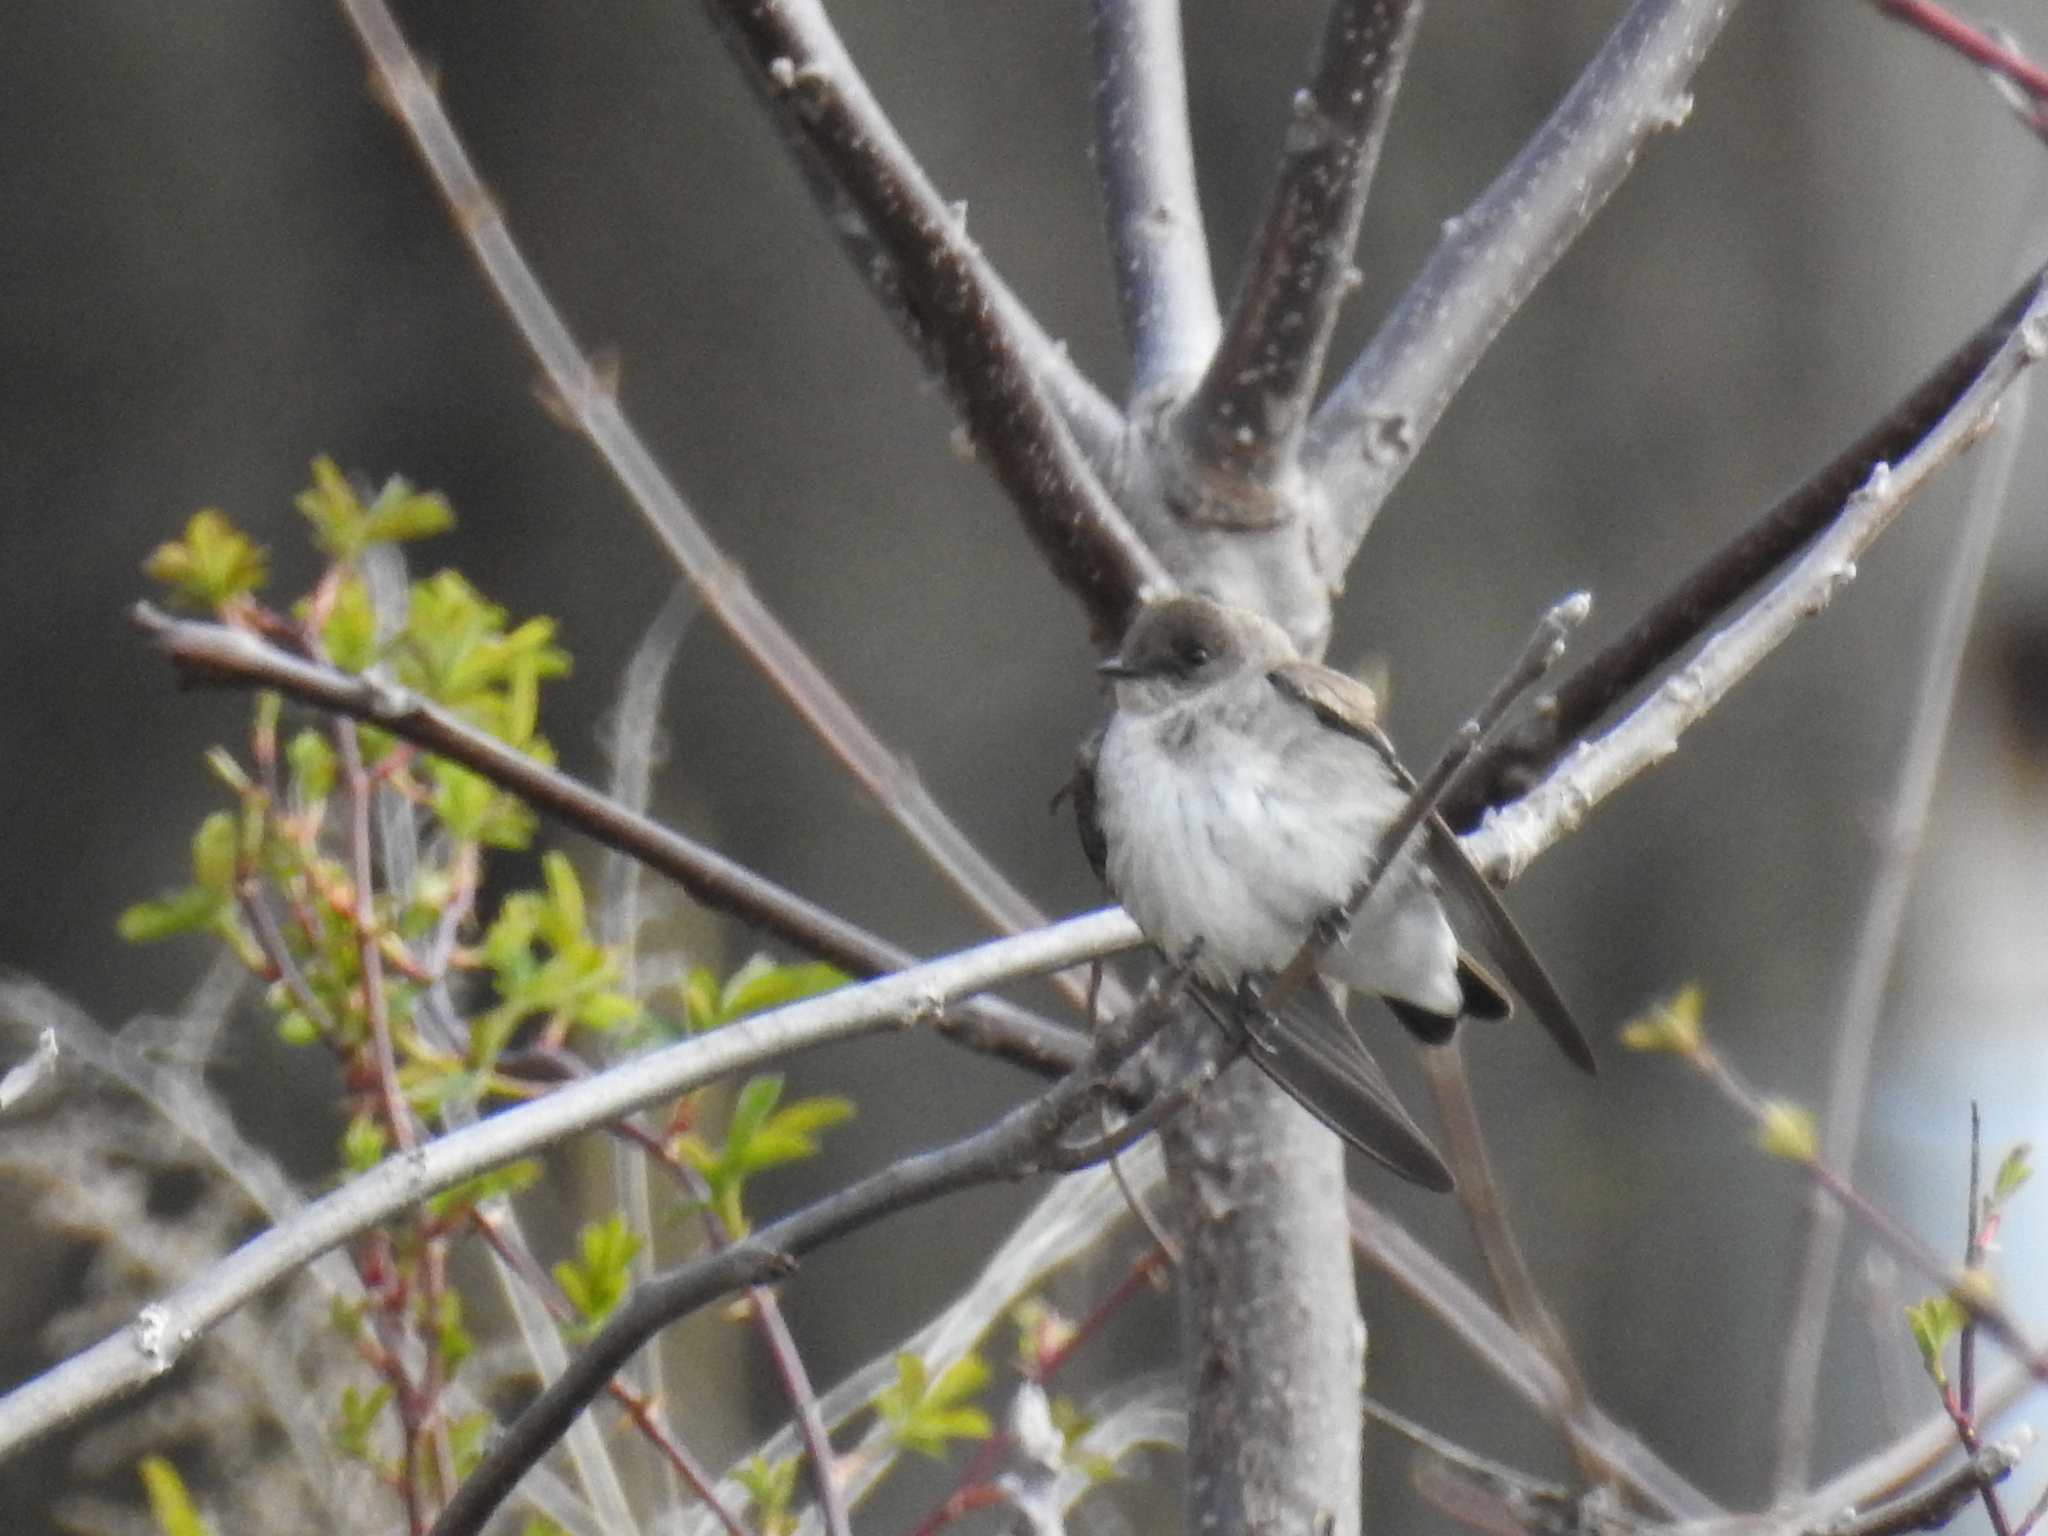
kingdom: Animalia
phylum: Chordata
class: Aves
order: Passeriformes
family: Hirundinidae
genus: Stelgidopteryx
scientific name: Stelgidopteryx serripennis
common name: Northern rough-winged swallow
